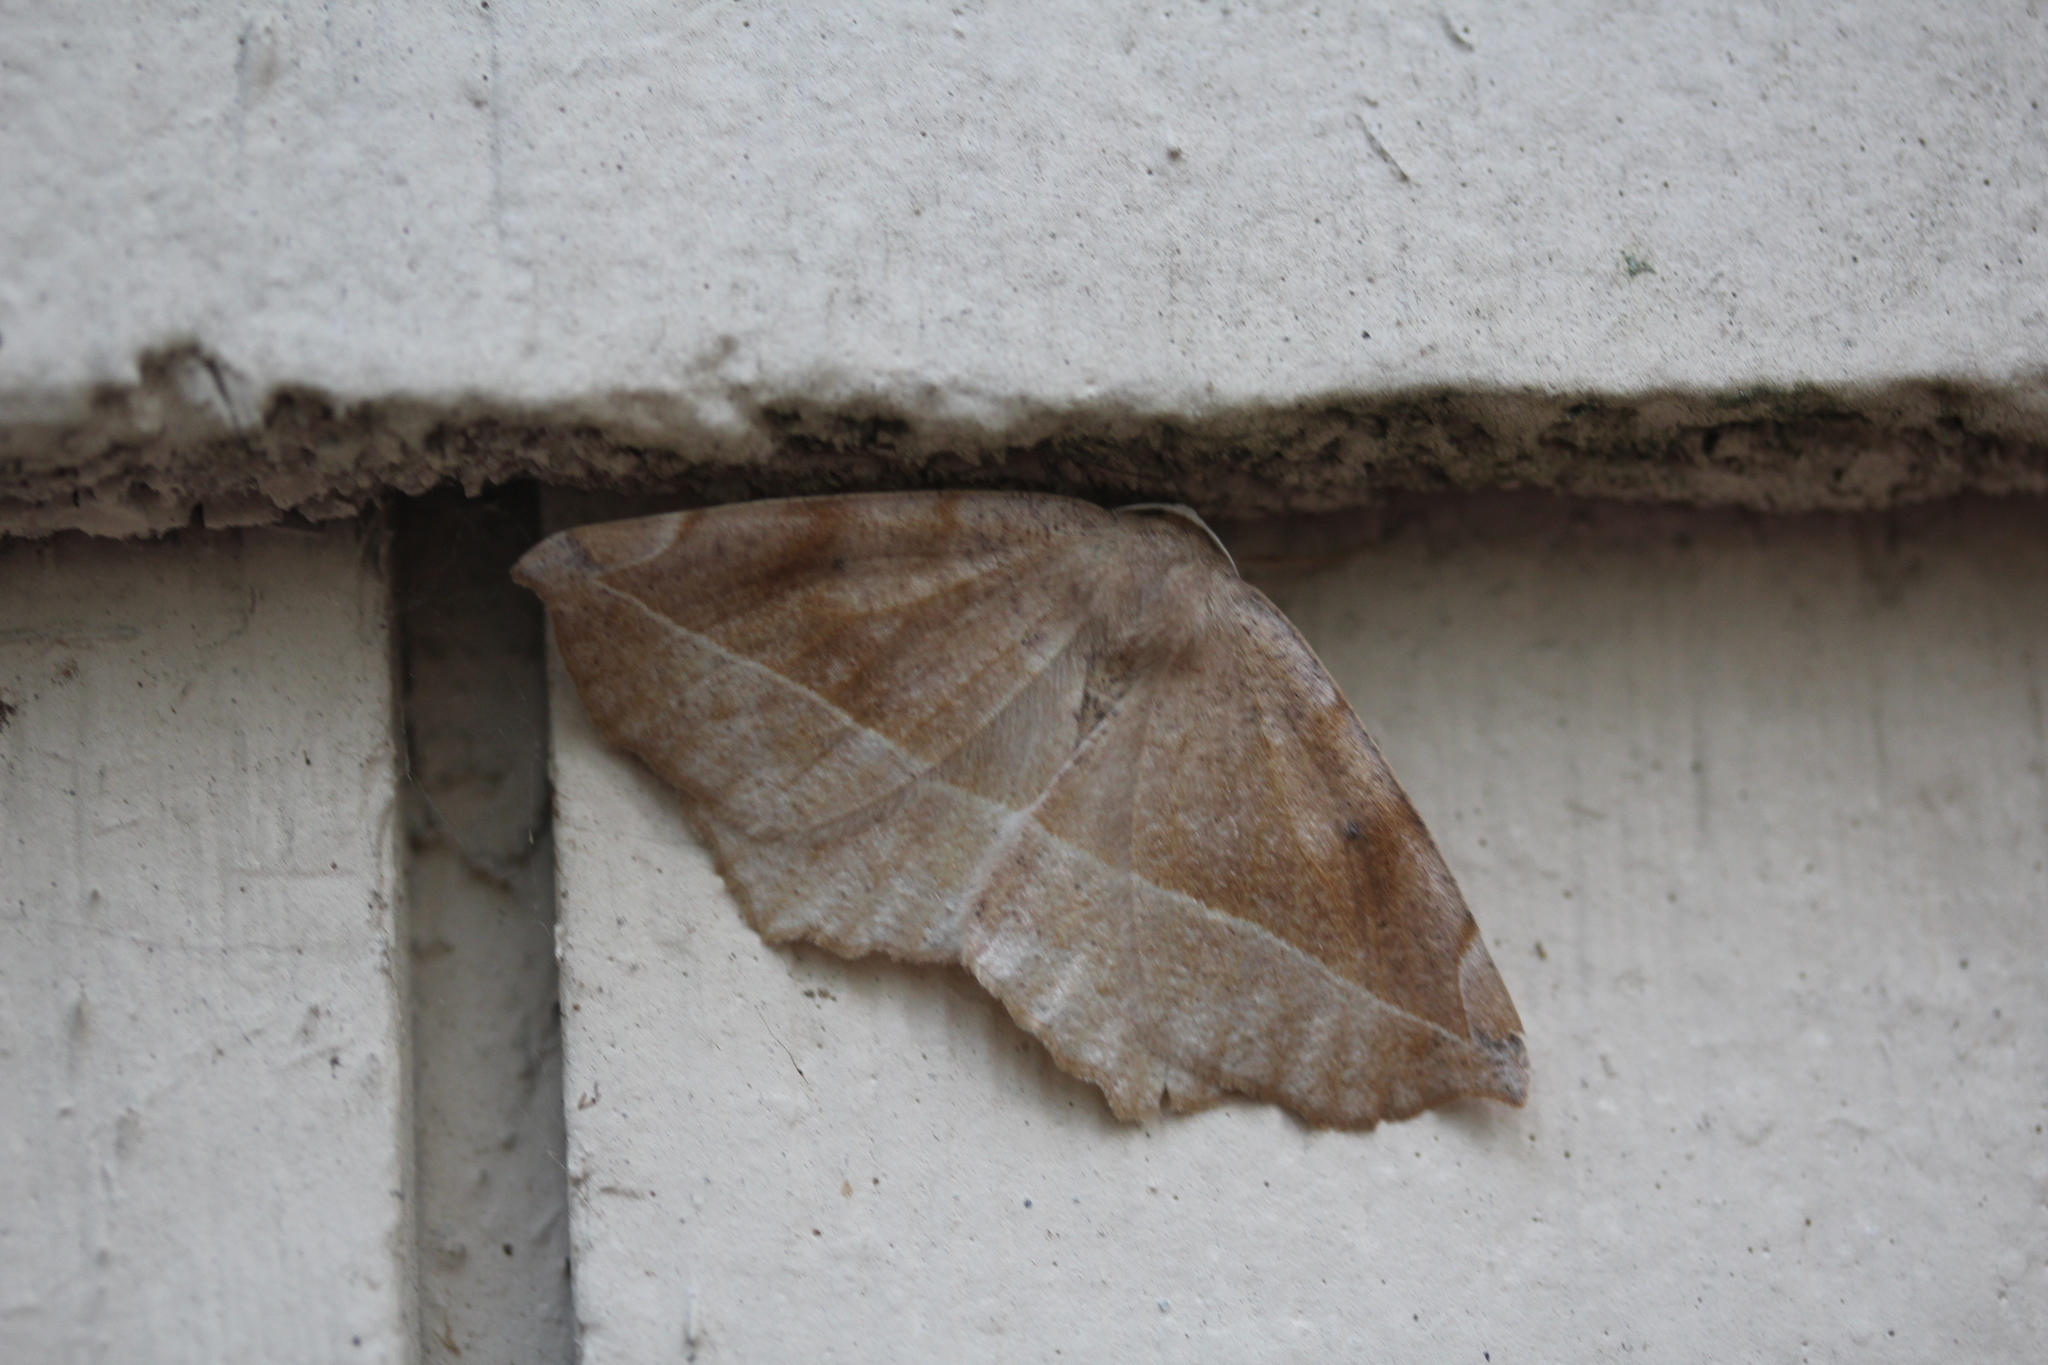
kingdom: Animalia
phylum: Arthropoda
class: Insecta
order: Lepidoptera
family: Geometridae
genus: Eutrapela
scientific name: Eutrapela clemataria
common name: Curved-toothed geometer
